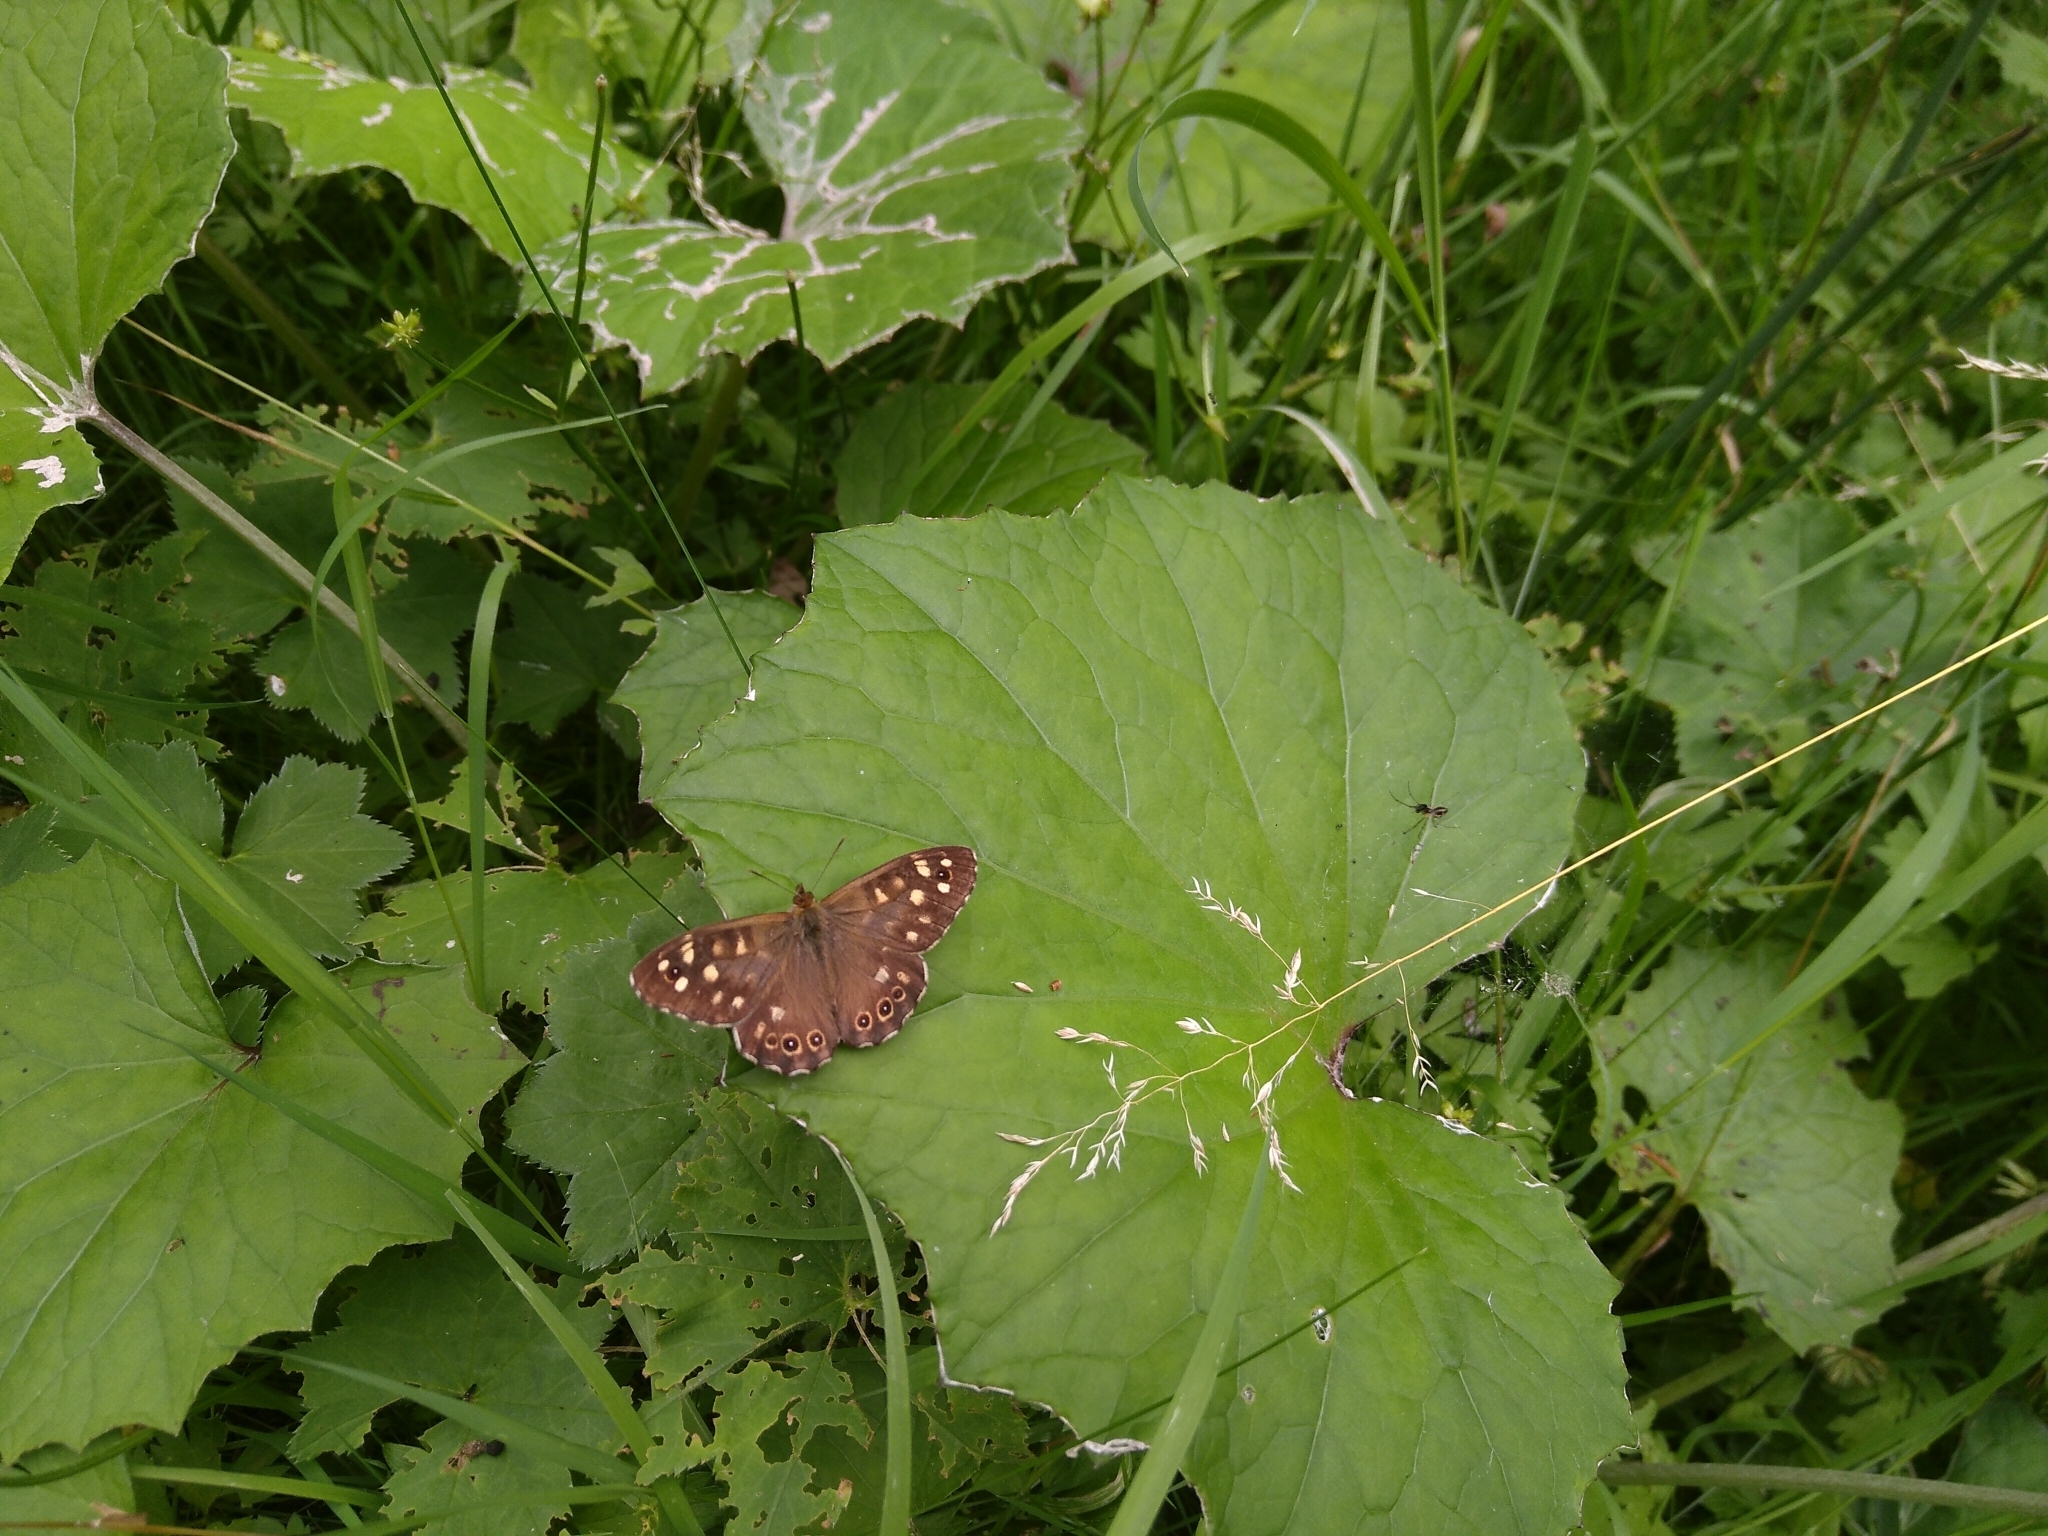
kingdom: Animalia
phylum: Arthropoda
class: Insecta
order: Lepidoptera
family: Nymphalidae
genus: Pararge
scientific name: Pararge aegeria
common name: Speckled wood
